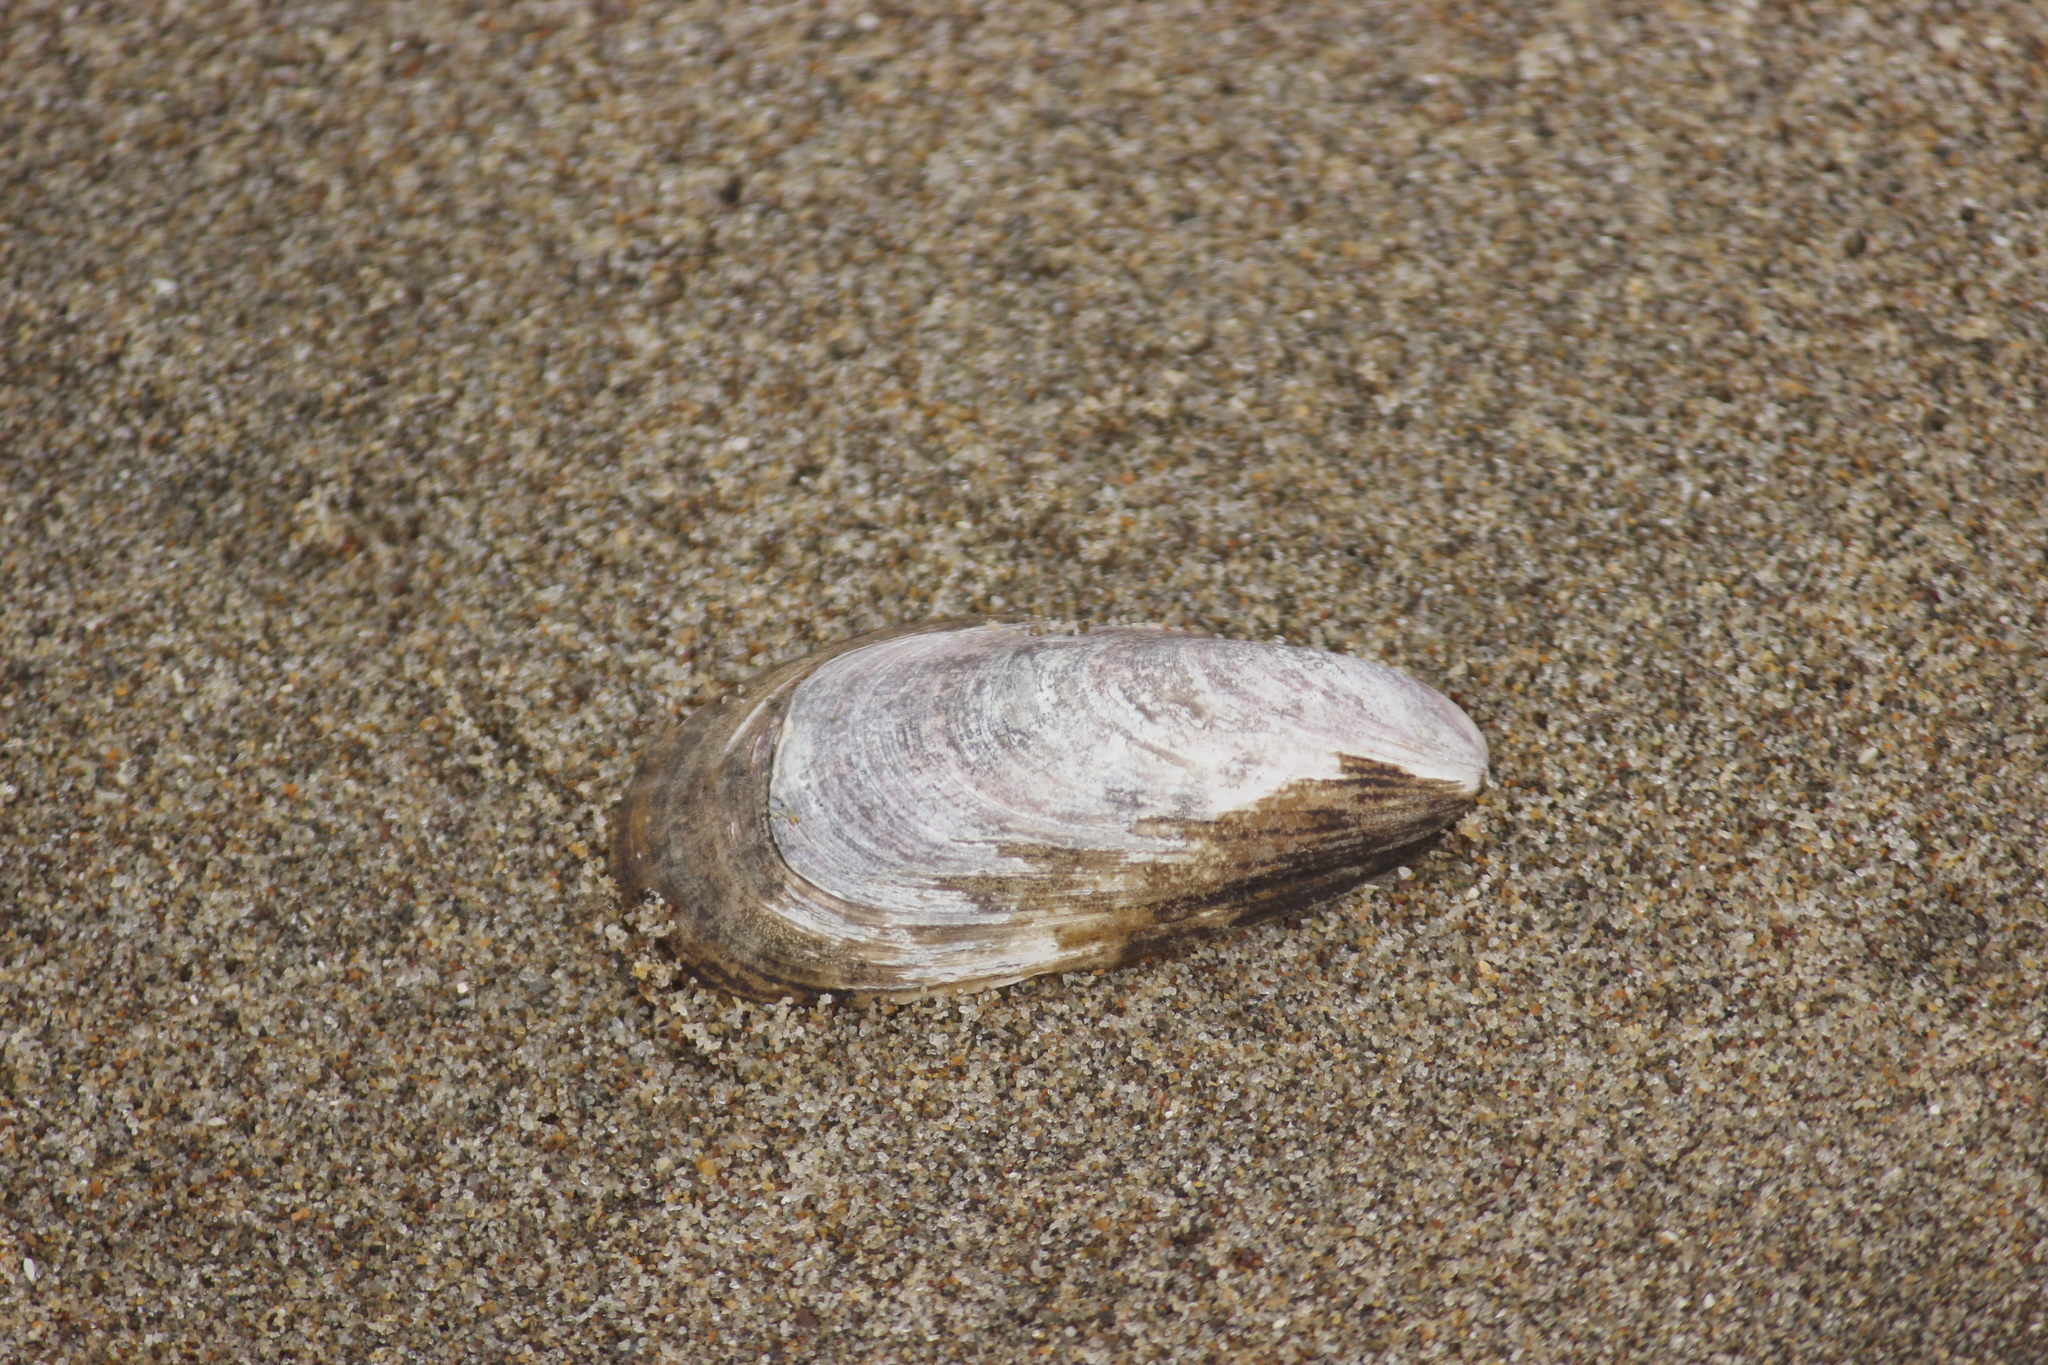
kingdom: Animalia
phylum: Mollusca
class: Bivalvia
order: Mytilida
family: Mytilidae
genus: Semimytilus
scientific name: Semimytilus patagonicus
